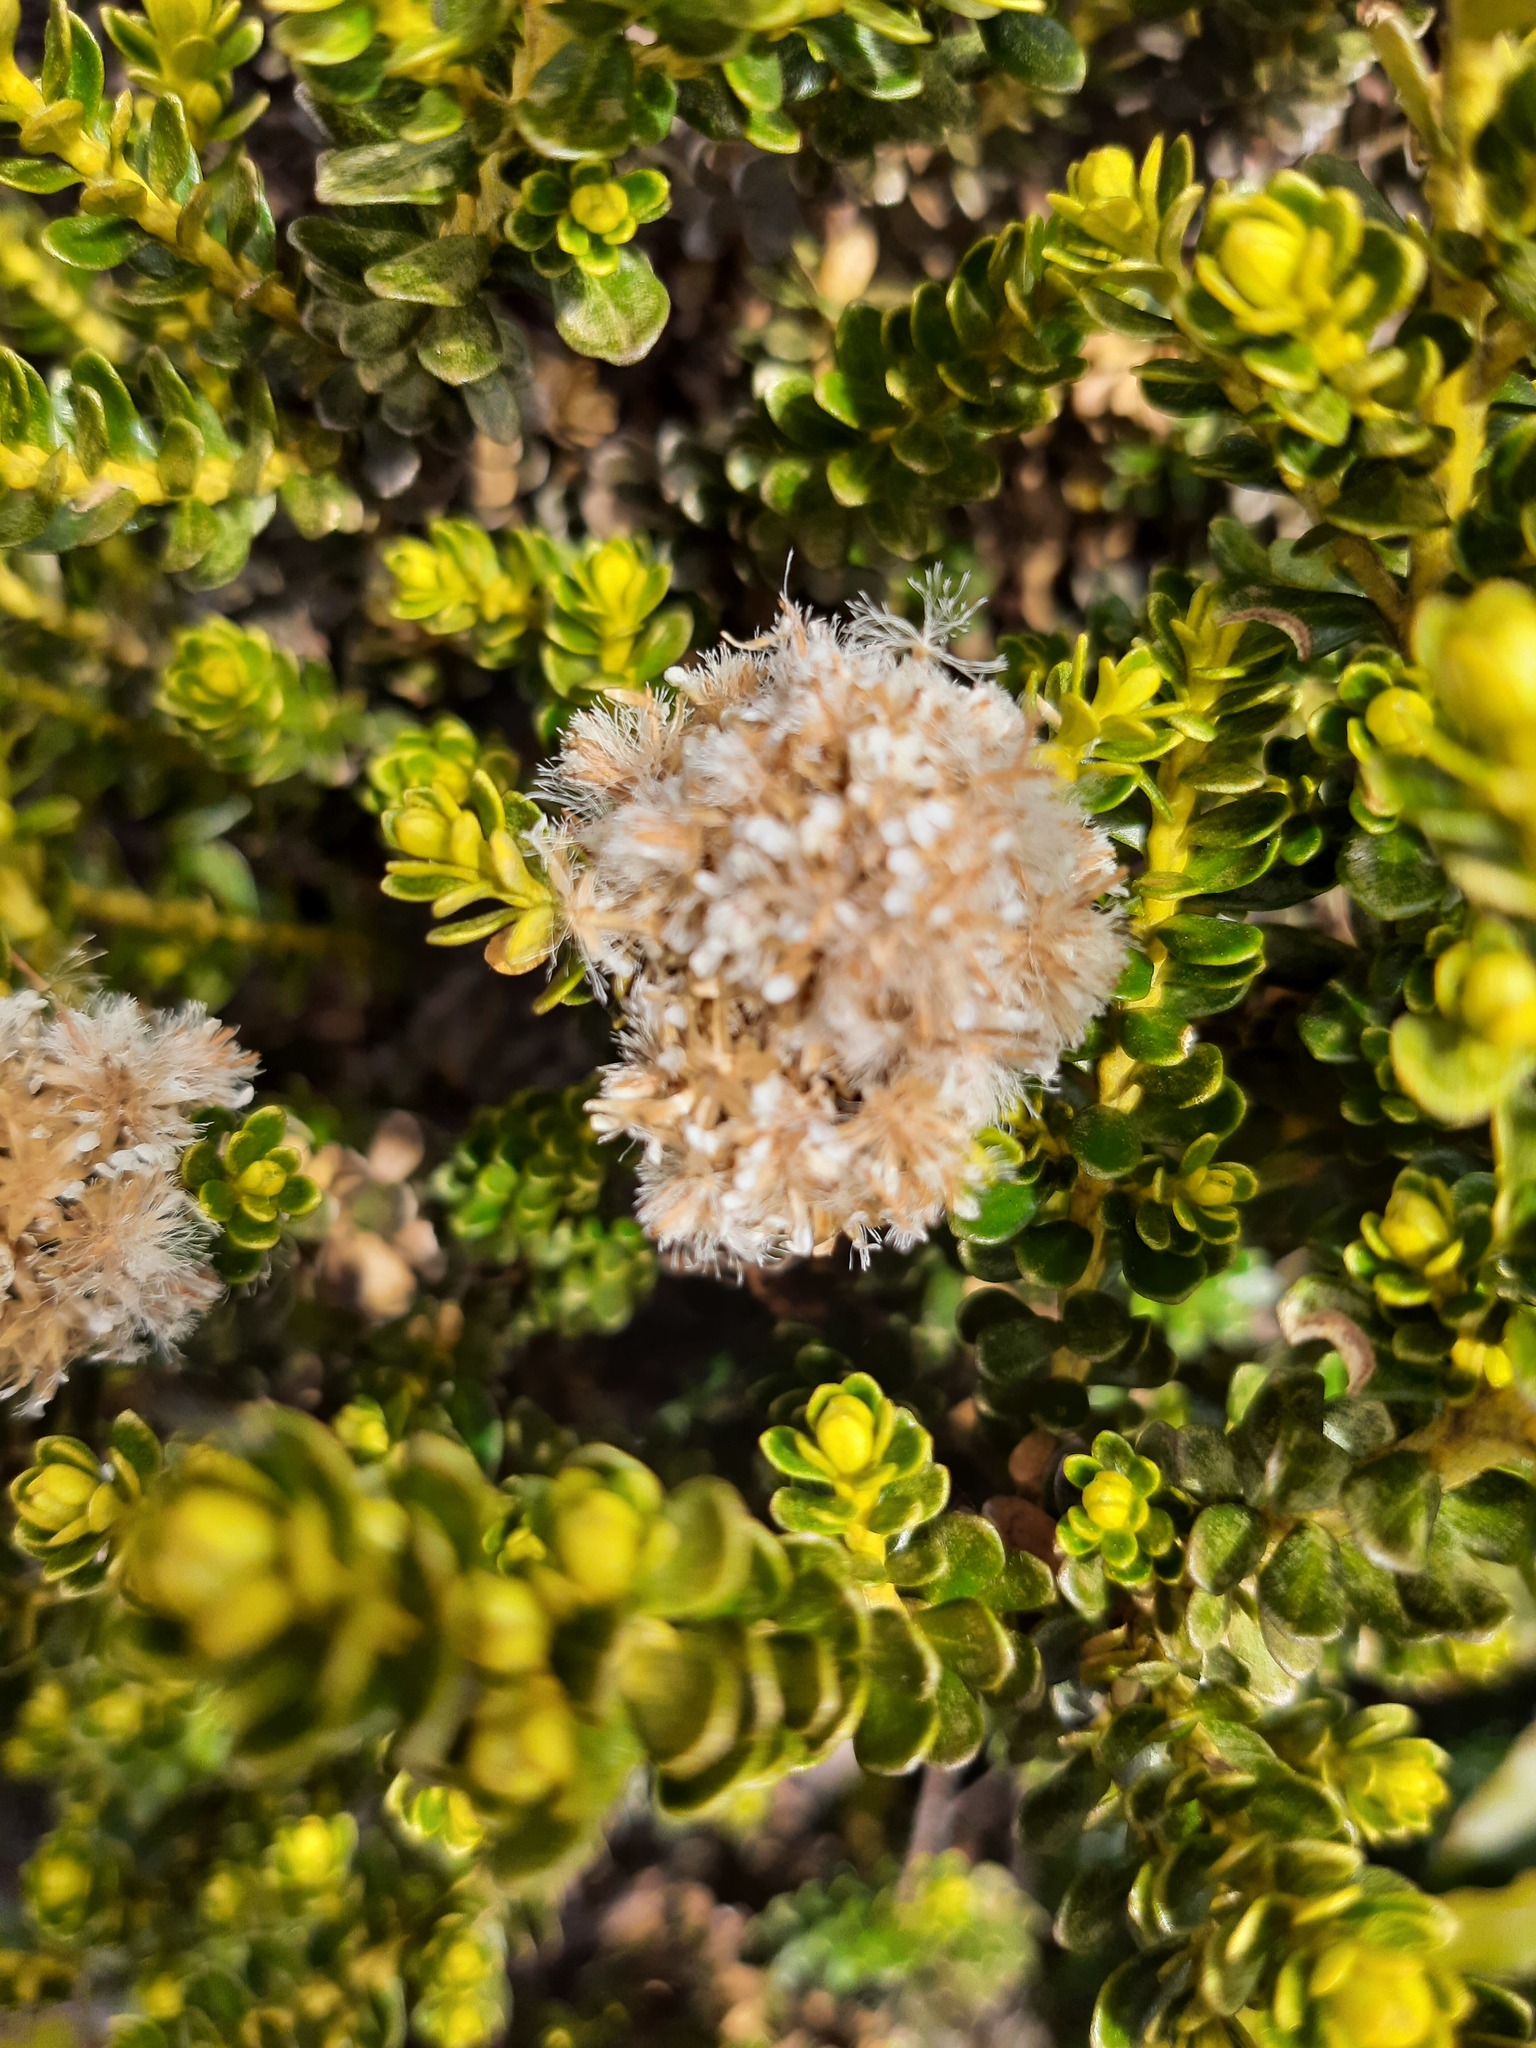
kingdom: Plantae
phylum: Tracheophyta
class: Magnoliopsida
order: Asterales
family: Asteraceae
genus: Ozothamnus
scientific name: Ozothamnus leptophyllus
